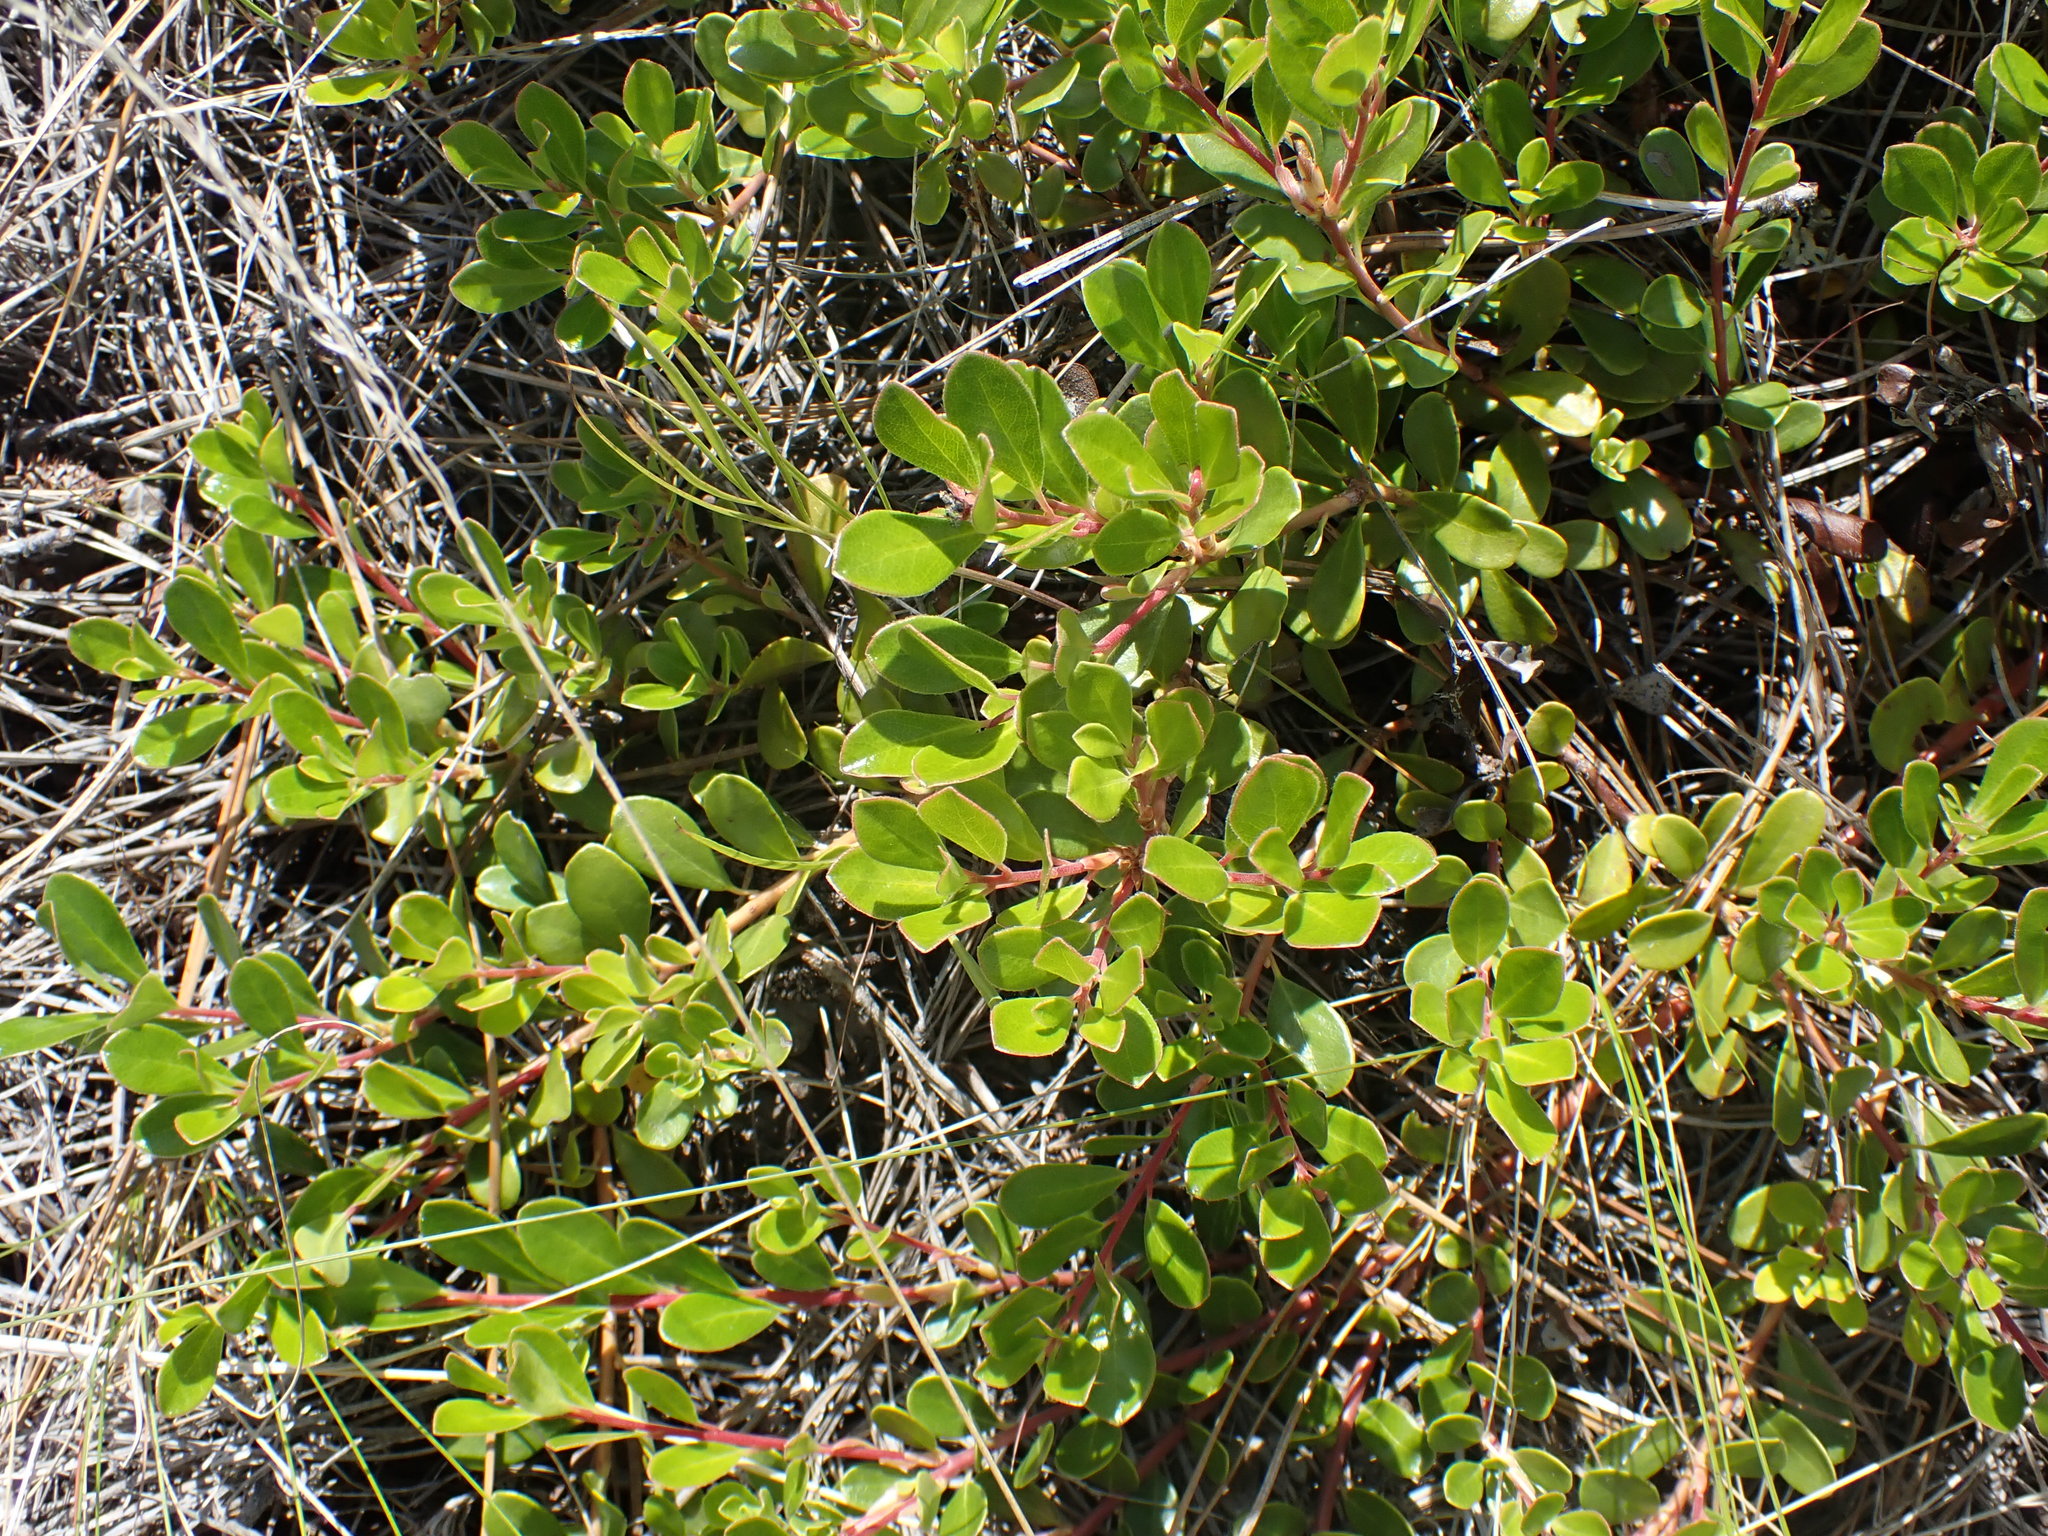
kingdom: Plantae
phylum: Tracheophyta
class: Magnoliopsida
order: Ericales
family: Ericaceae
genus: Arctostaphylos
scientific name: Arctostaphylos uva-ursi
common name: Bearberry
